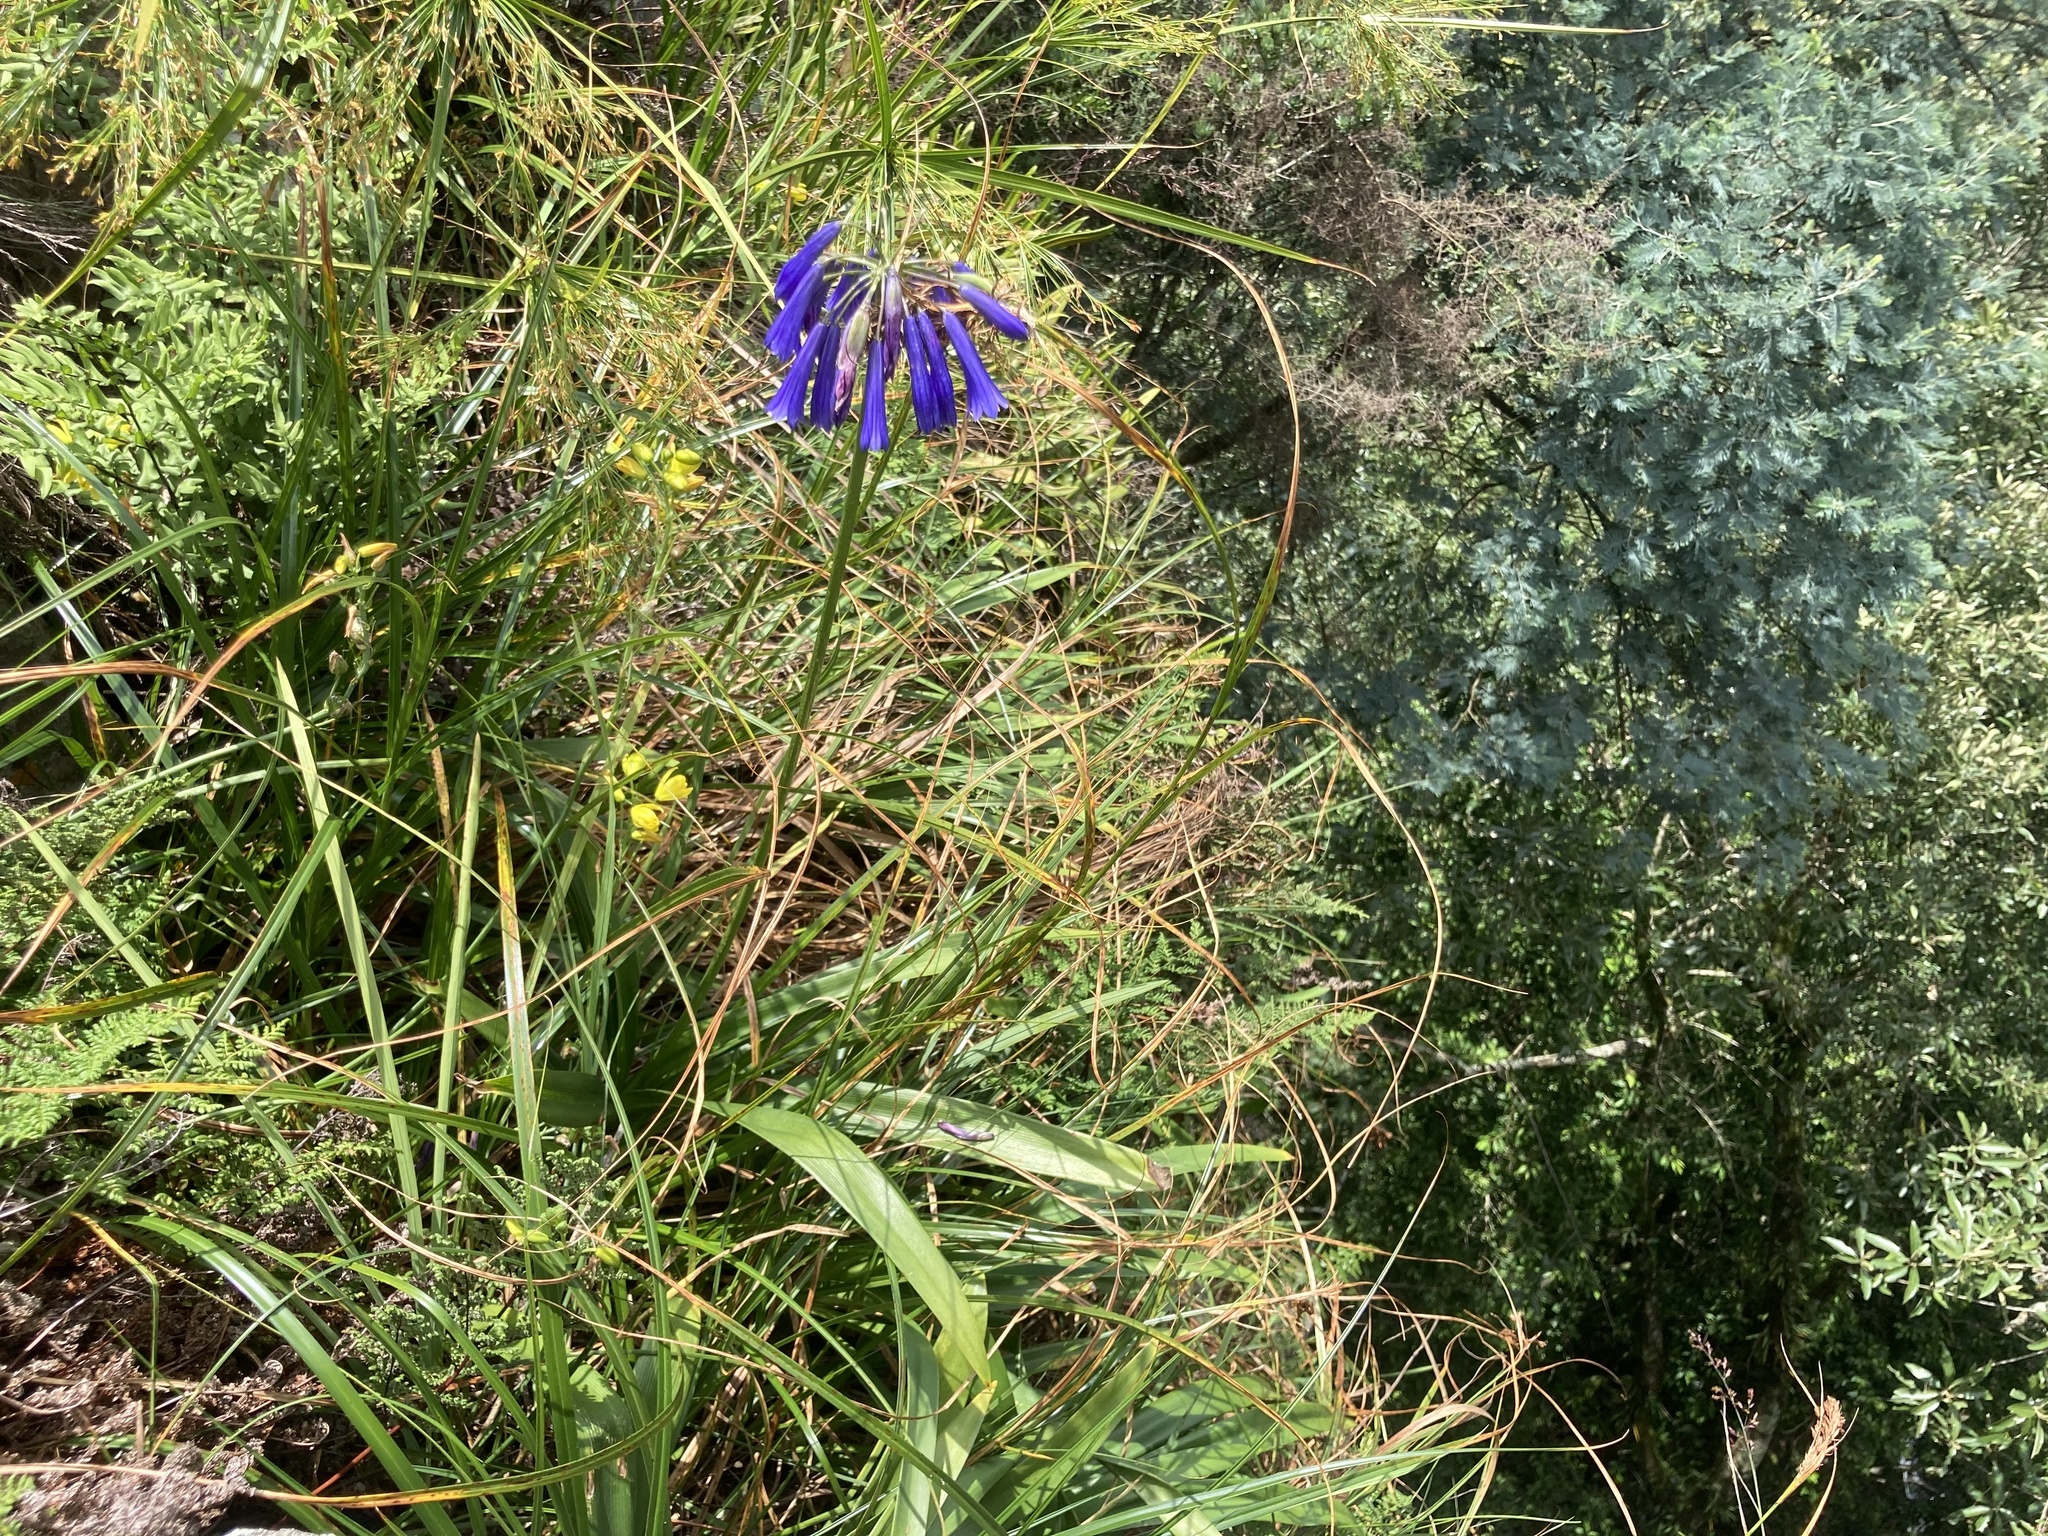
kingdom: Plantae
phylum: Tracheophyta
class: Liliopsida
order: Asparagales
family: Amaryllidaceae
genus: Agapanthus
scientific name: Agapanthus inapertus
